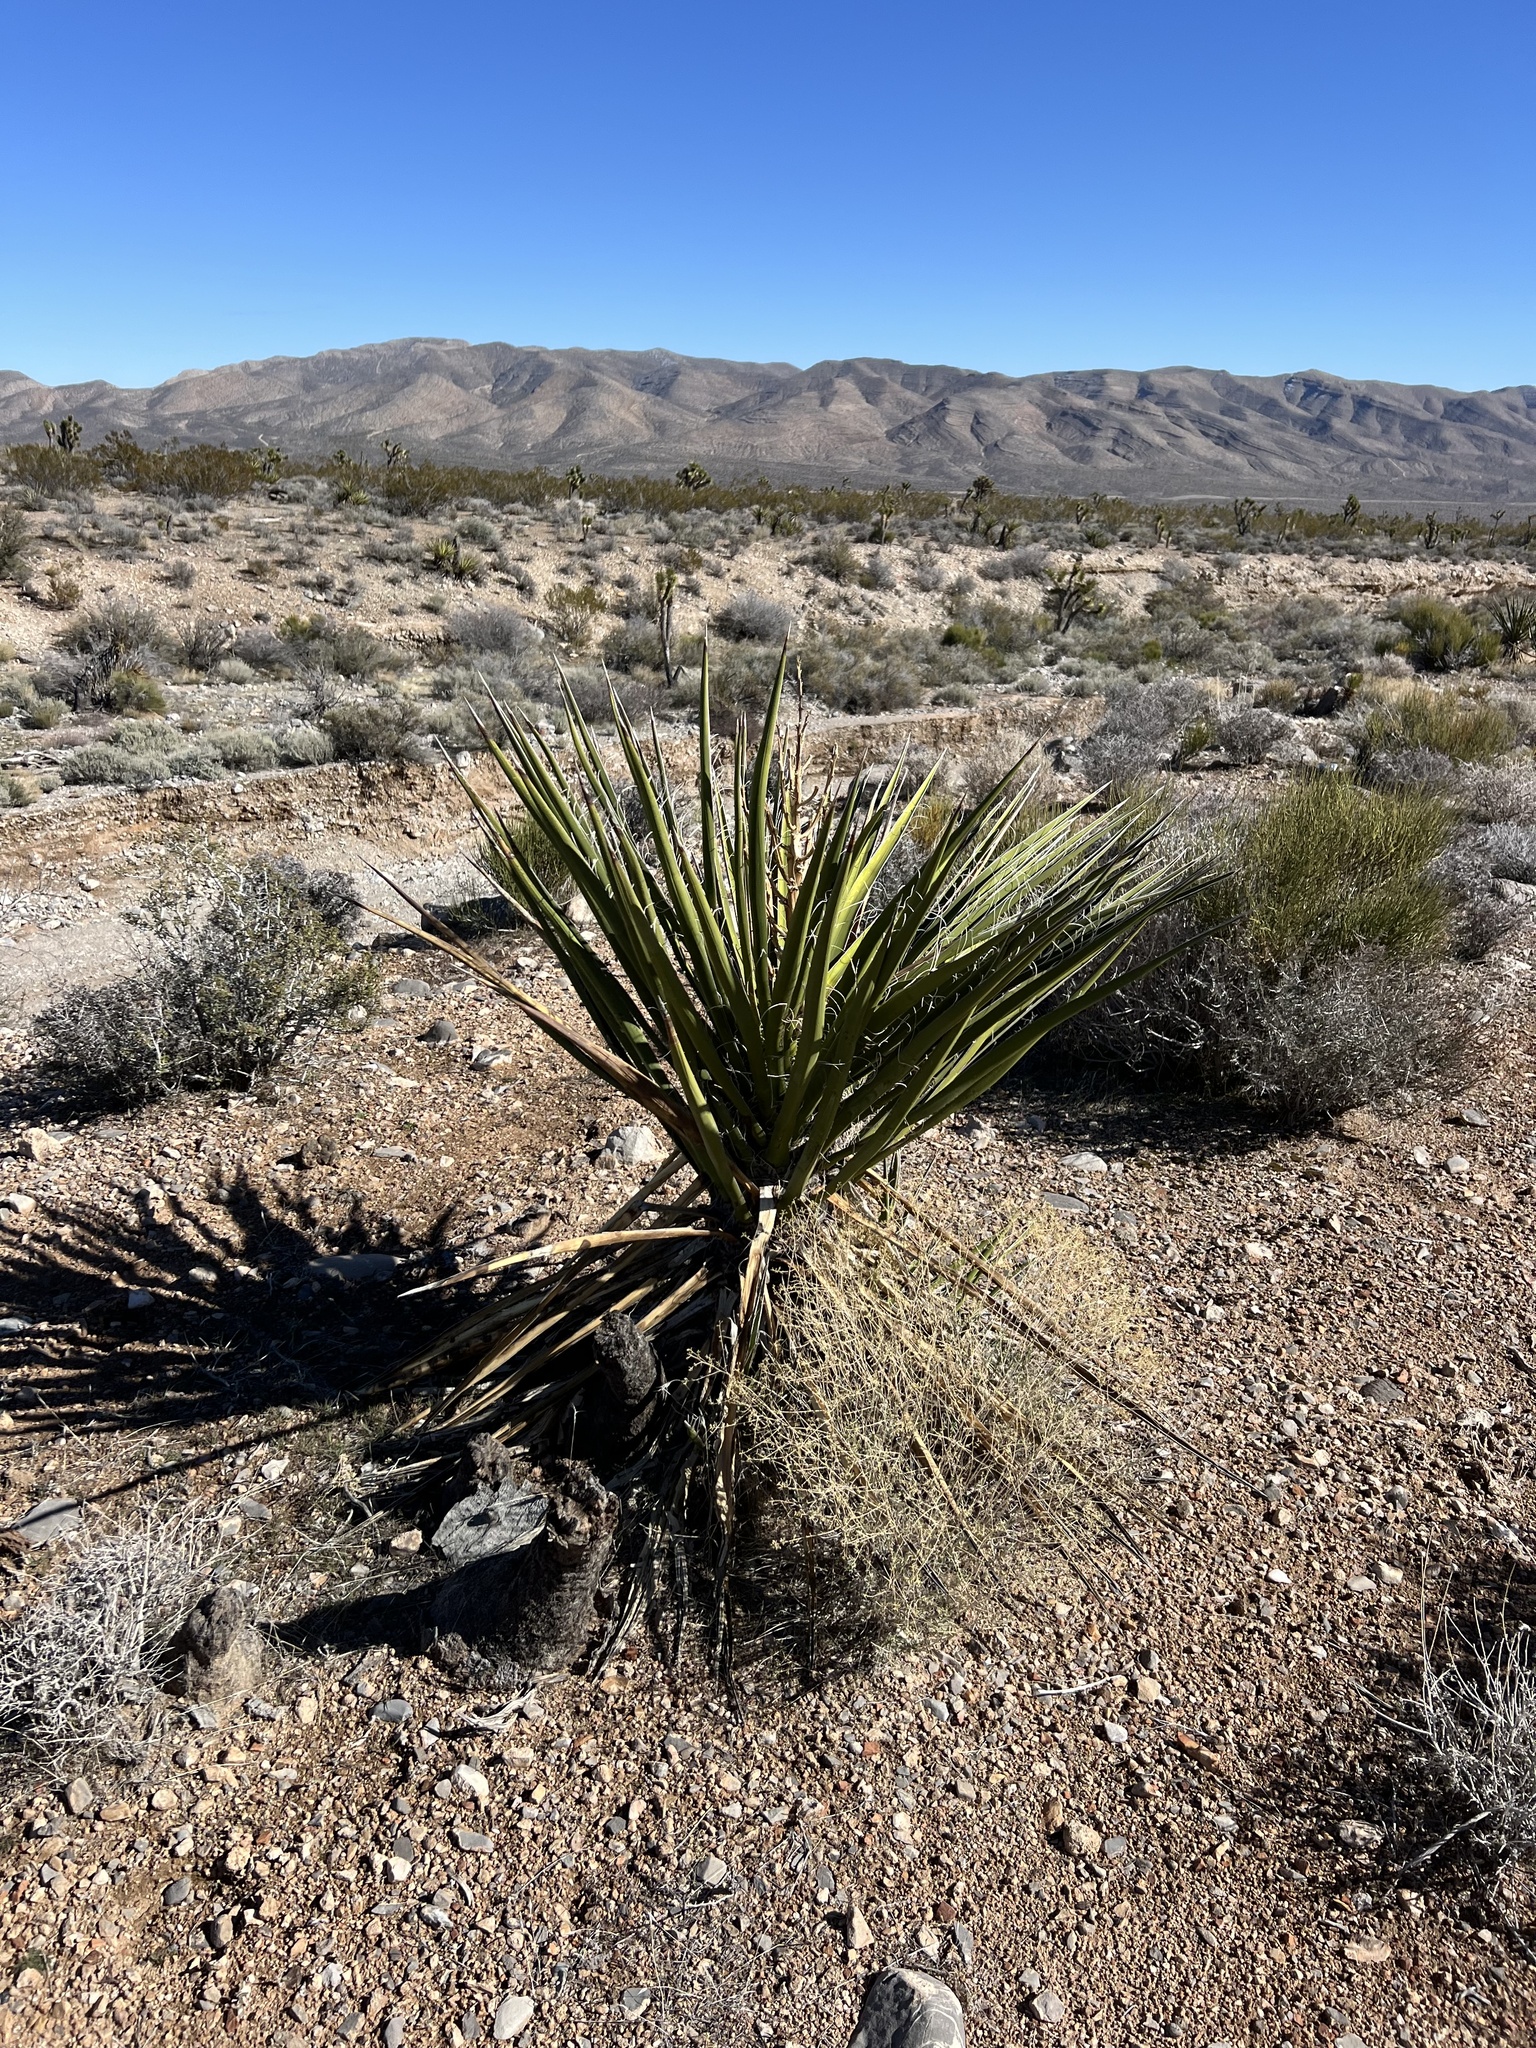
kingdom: Plantae
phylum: Tracheophyta
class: Liliopsida
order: Asparagales
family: Asparagaceae
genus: Yucca
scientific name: Yucca schidigera
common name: Mojave yucca
